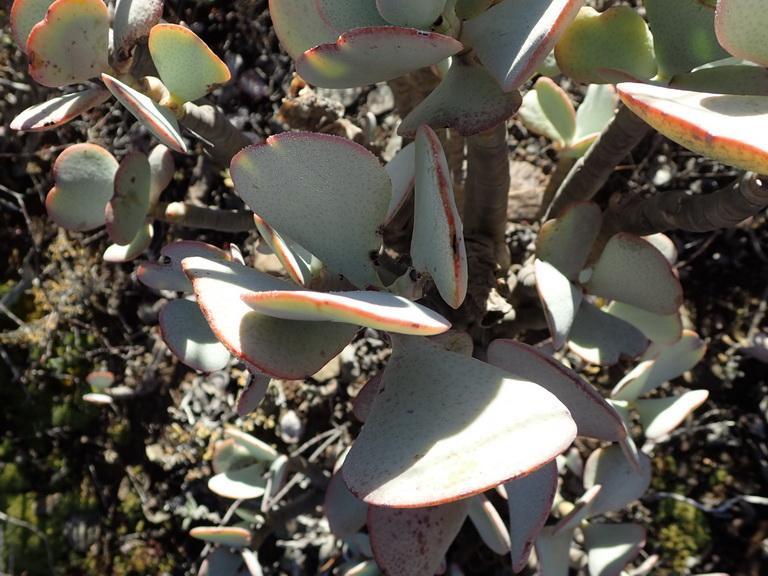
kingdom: Plantae
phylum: Tracheophyta
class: Magnoliopsida
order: Saxifragales
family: Crassulaceae
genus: Crassula
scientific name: Crassula arborescens
